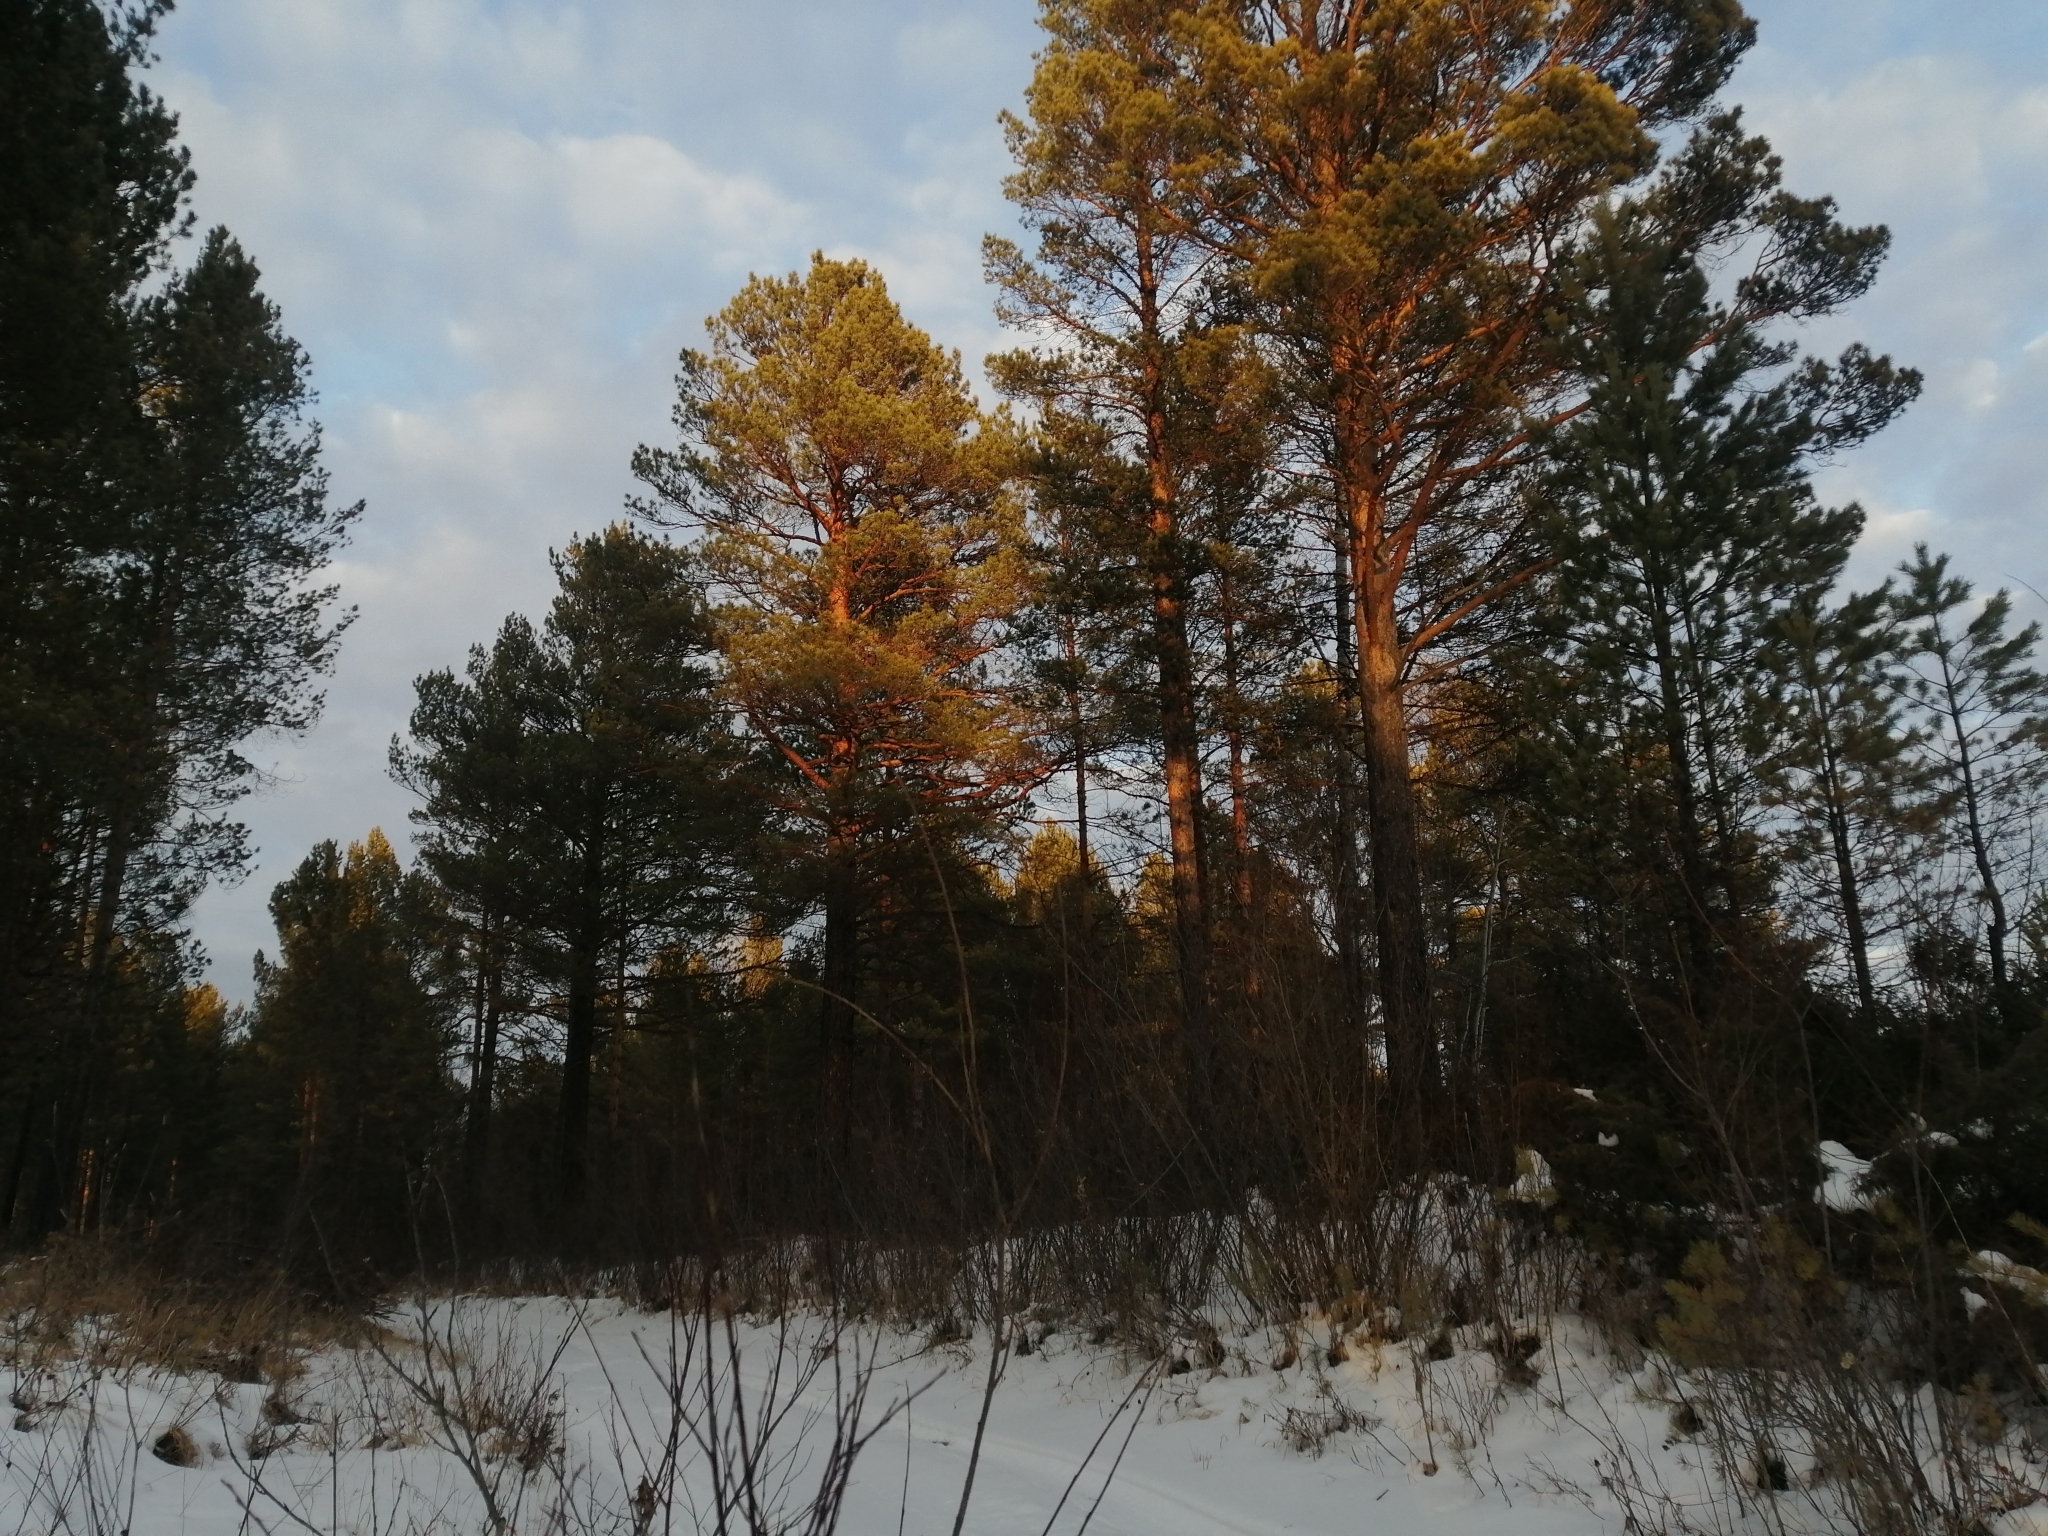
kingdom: Plantae
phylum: Tracheophyta
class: Pinopsida
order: Pinales
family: Pinaceae
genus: Pinus
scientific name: Pinus sylvestris
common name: Scots pine
